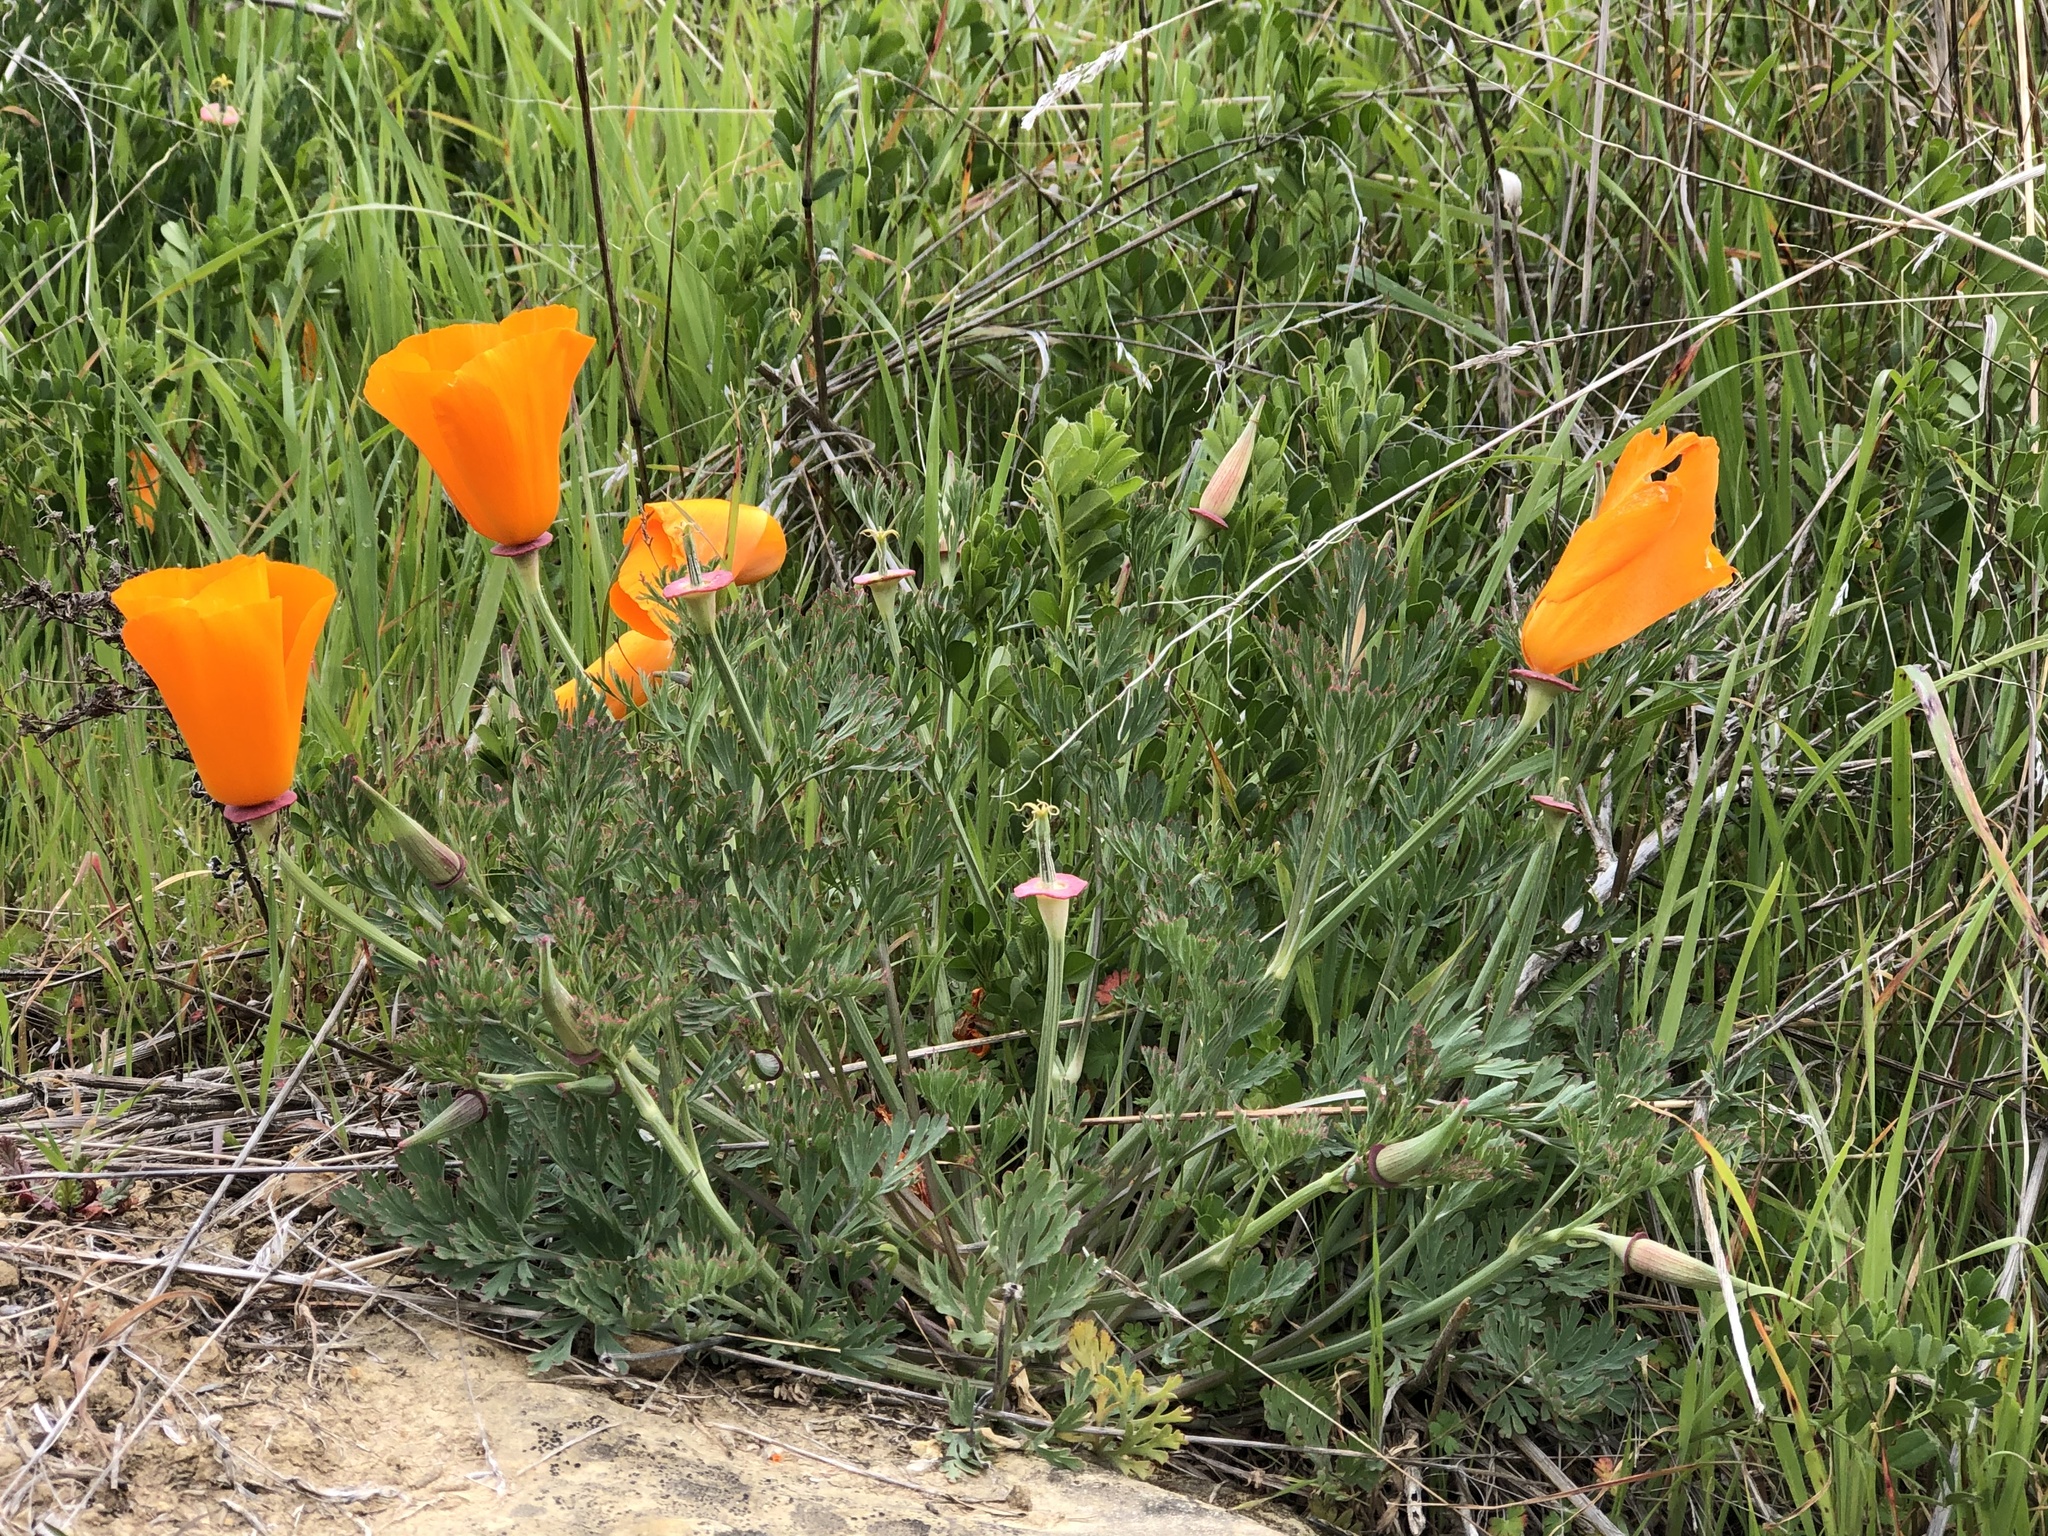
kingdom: Plantae
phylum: Tracheophyta
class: Magnoliopsida
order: Ranunculales
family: Papaveraceae
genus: Eschscholzia
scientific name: Eschscholzia californica
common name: California poppy
